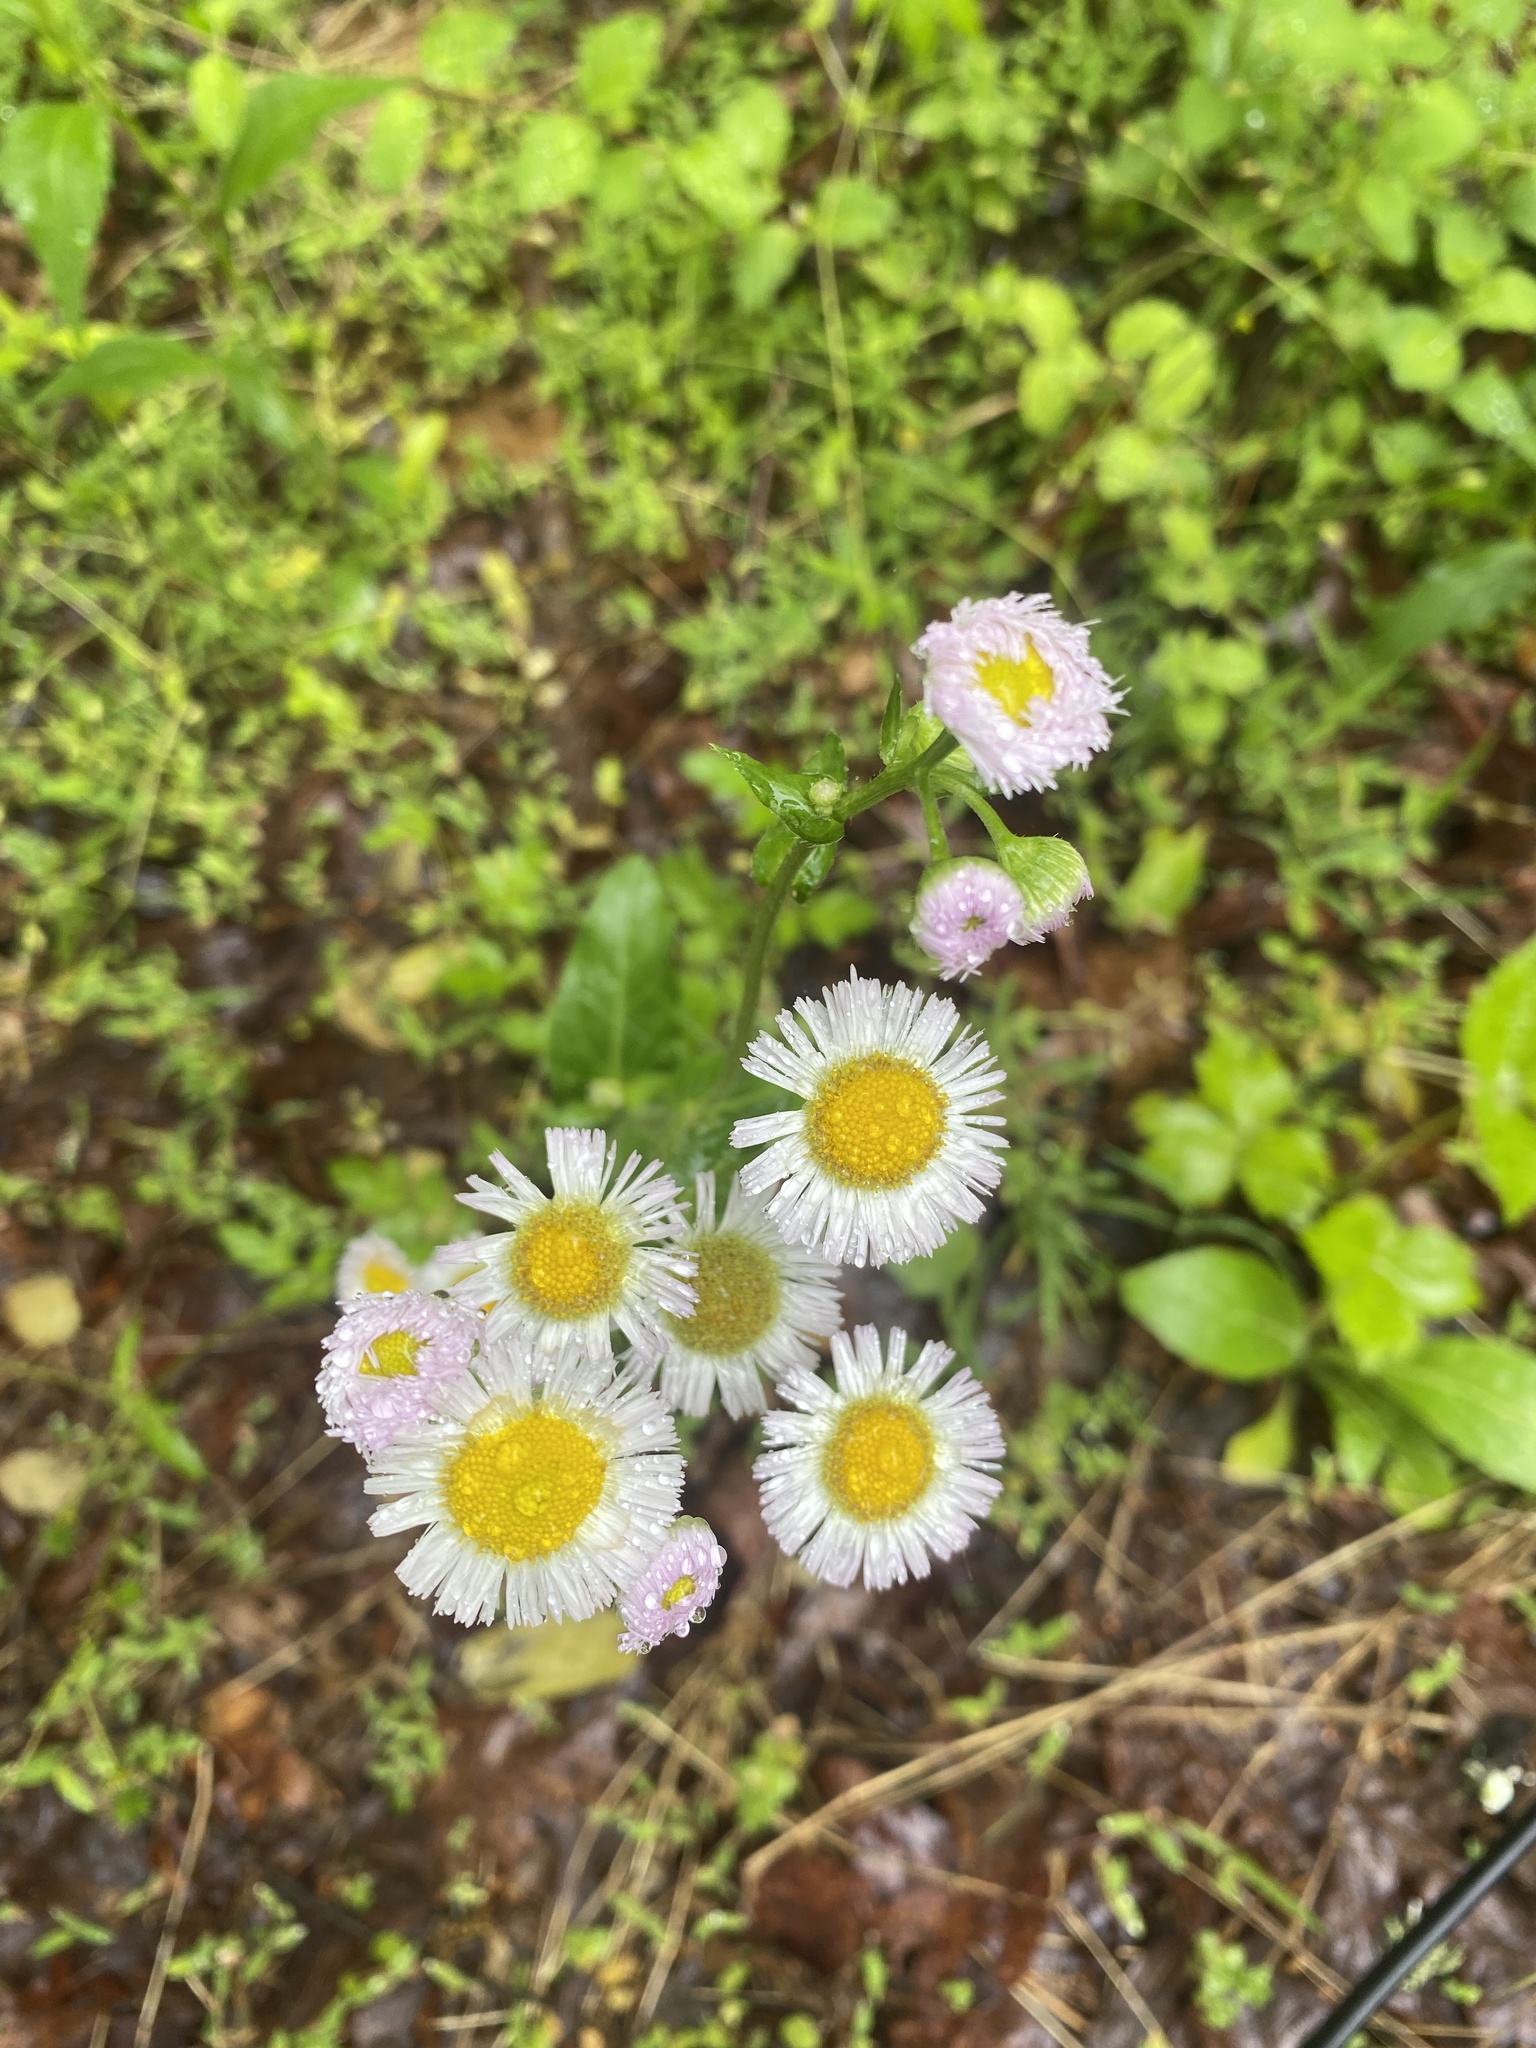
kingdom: Plantae
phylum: Tracheophyta
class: Magnoliopsida
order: Asterales
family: Asteraceae
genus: Erigeron
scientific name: Erigeron philadelphicus
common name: Robin's-plantain
